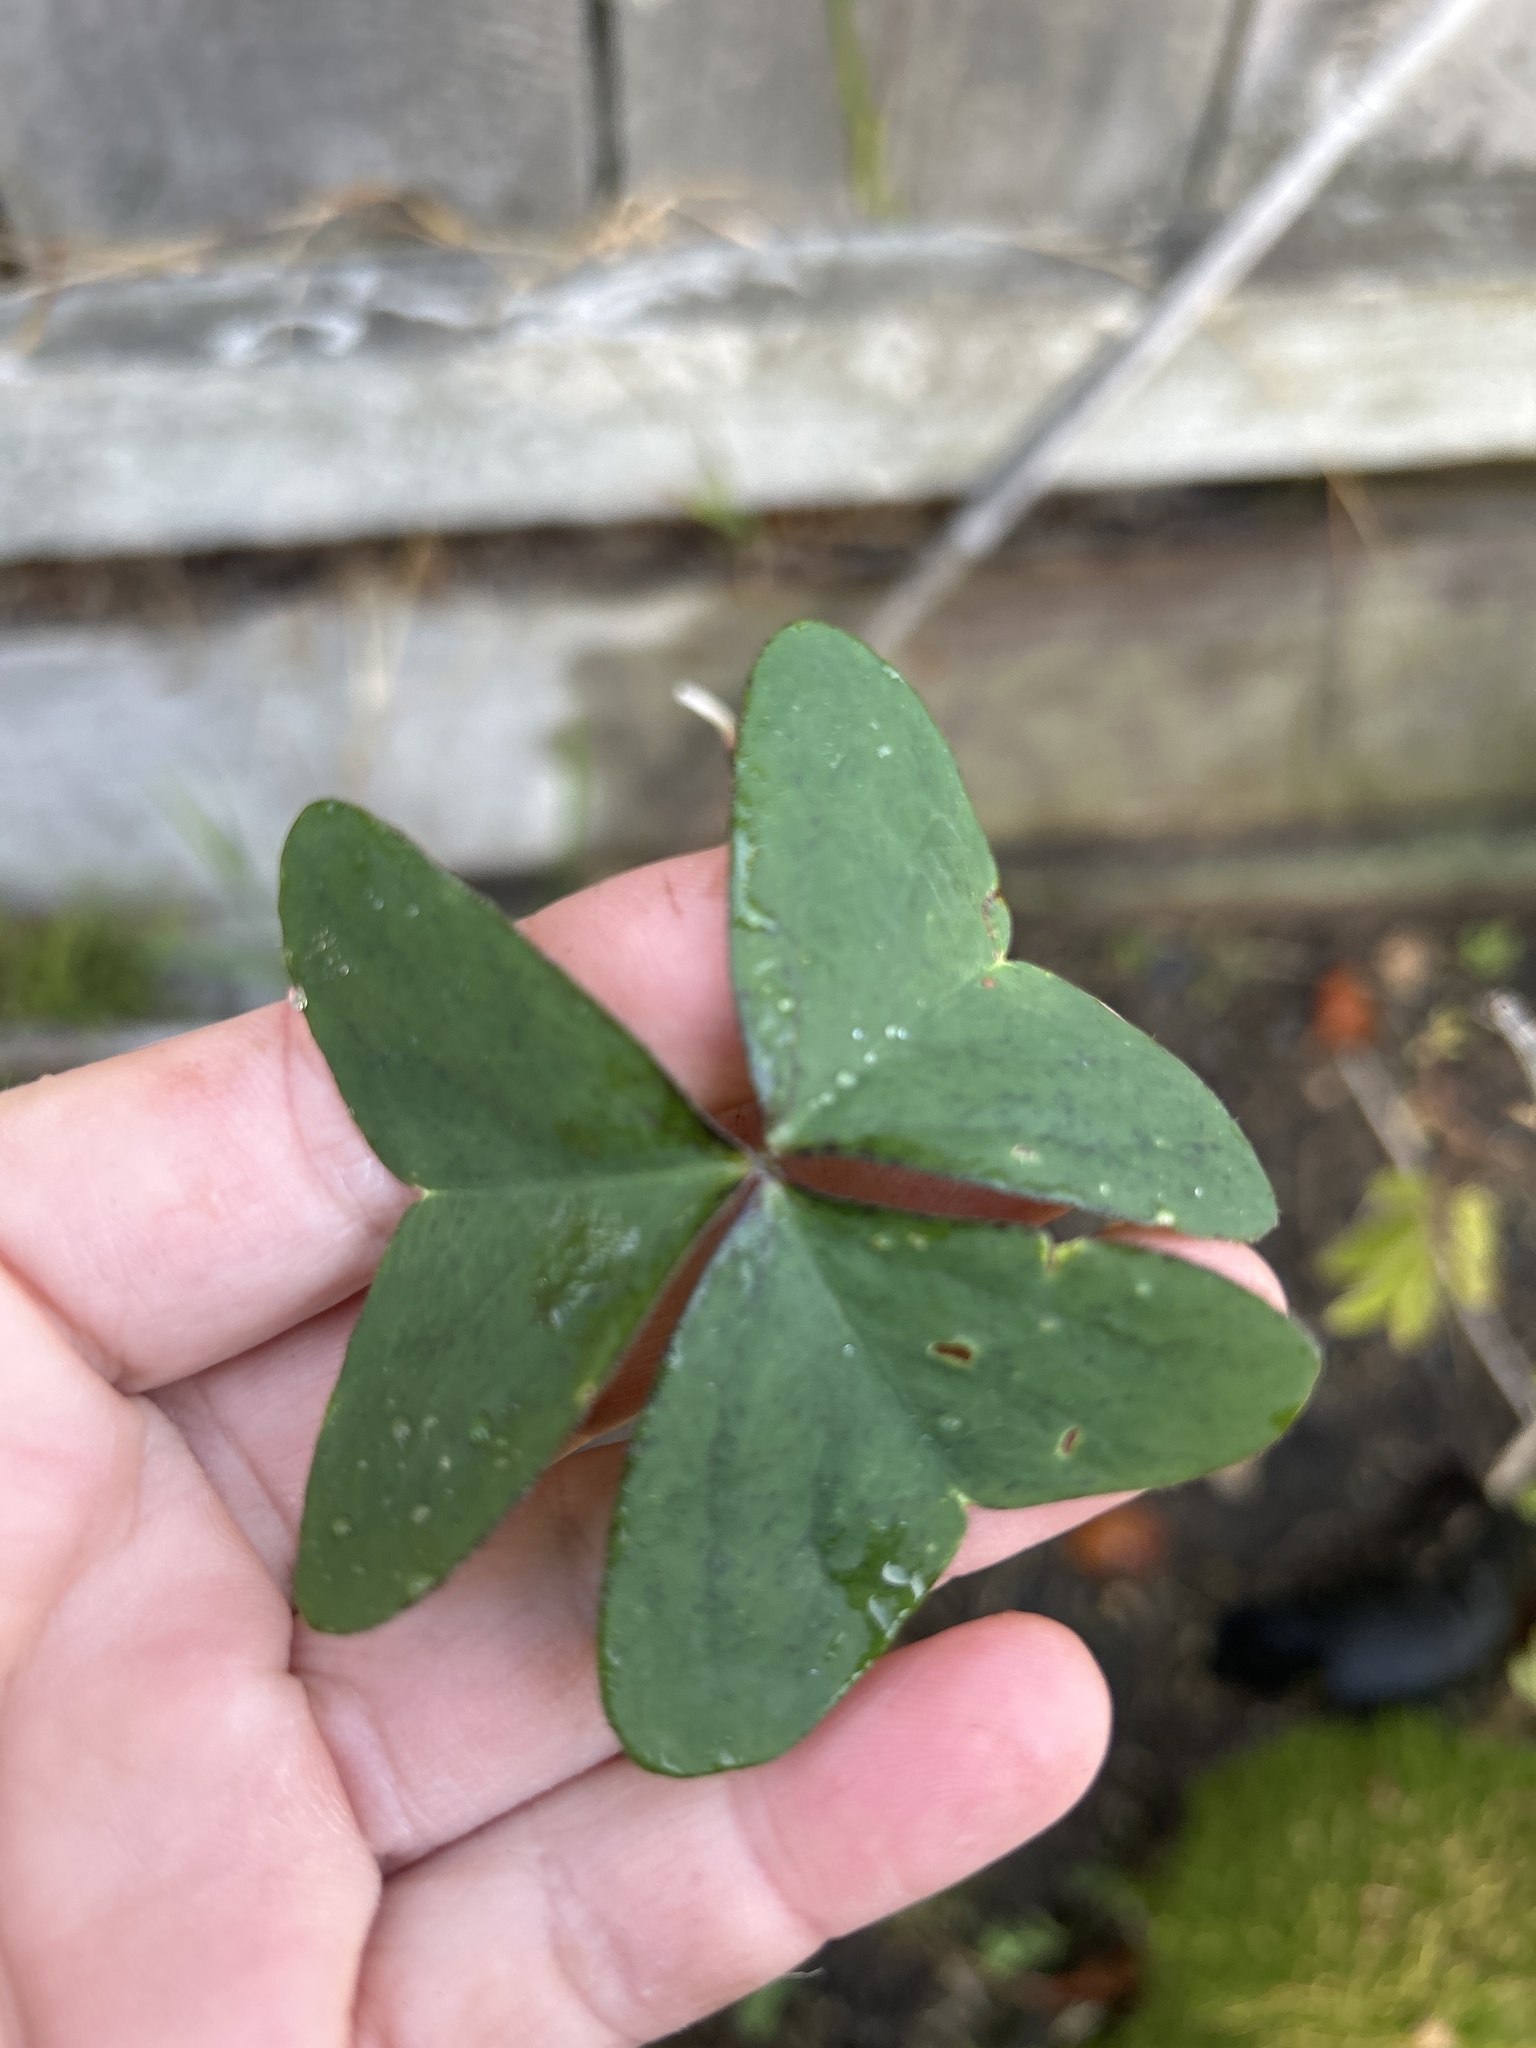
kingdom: Plantae
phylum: Tracheophyta
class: Magnoliopsida
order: Oxalidales
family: Oxalidaceae
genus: Oxalis
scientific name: Oxalis latifolia
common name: Garden pink-sorrel
